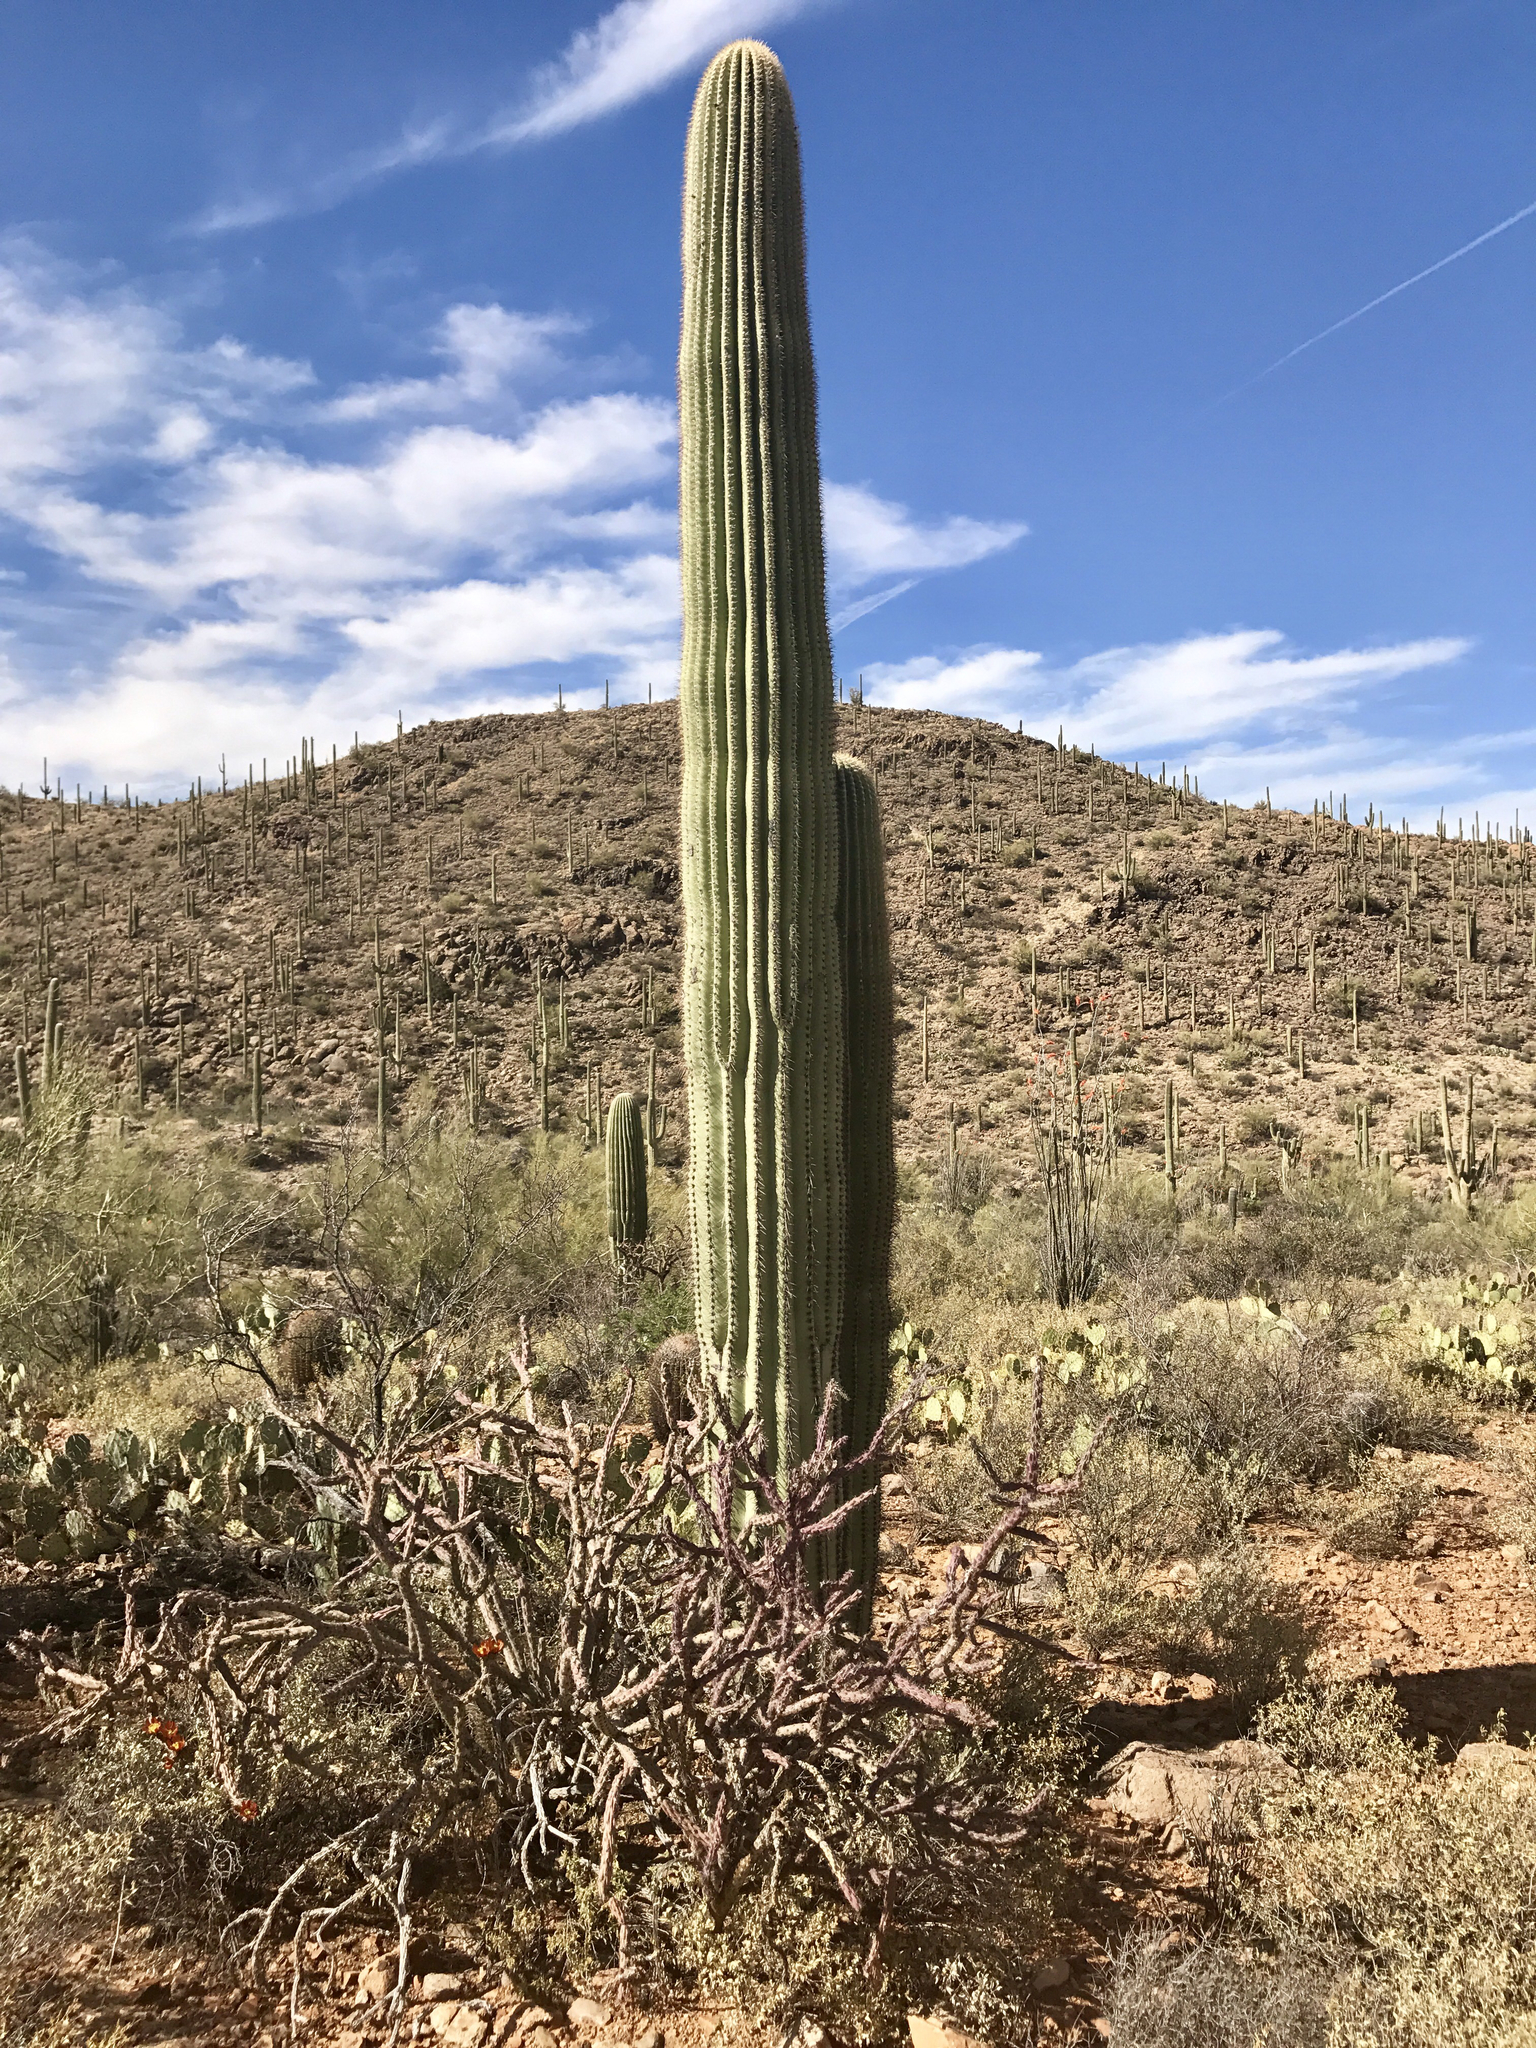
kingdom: Plantae
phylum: Tracheophyta
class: Magnoliopsida
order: Caryophyllales
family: Cactaceae
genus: Carnegiea
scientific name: Carnegiea gigantea
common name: Saguaro
